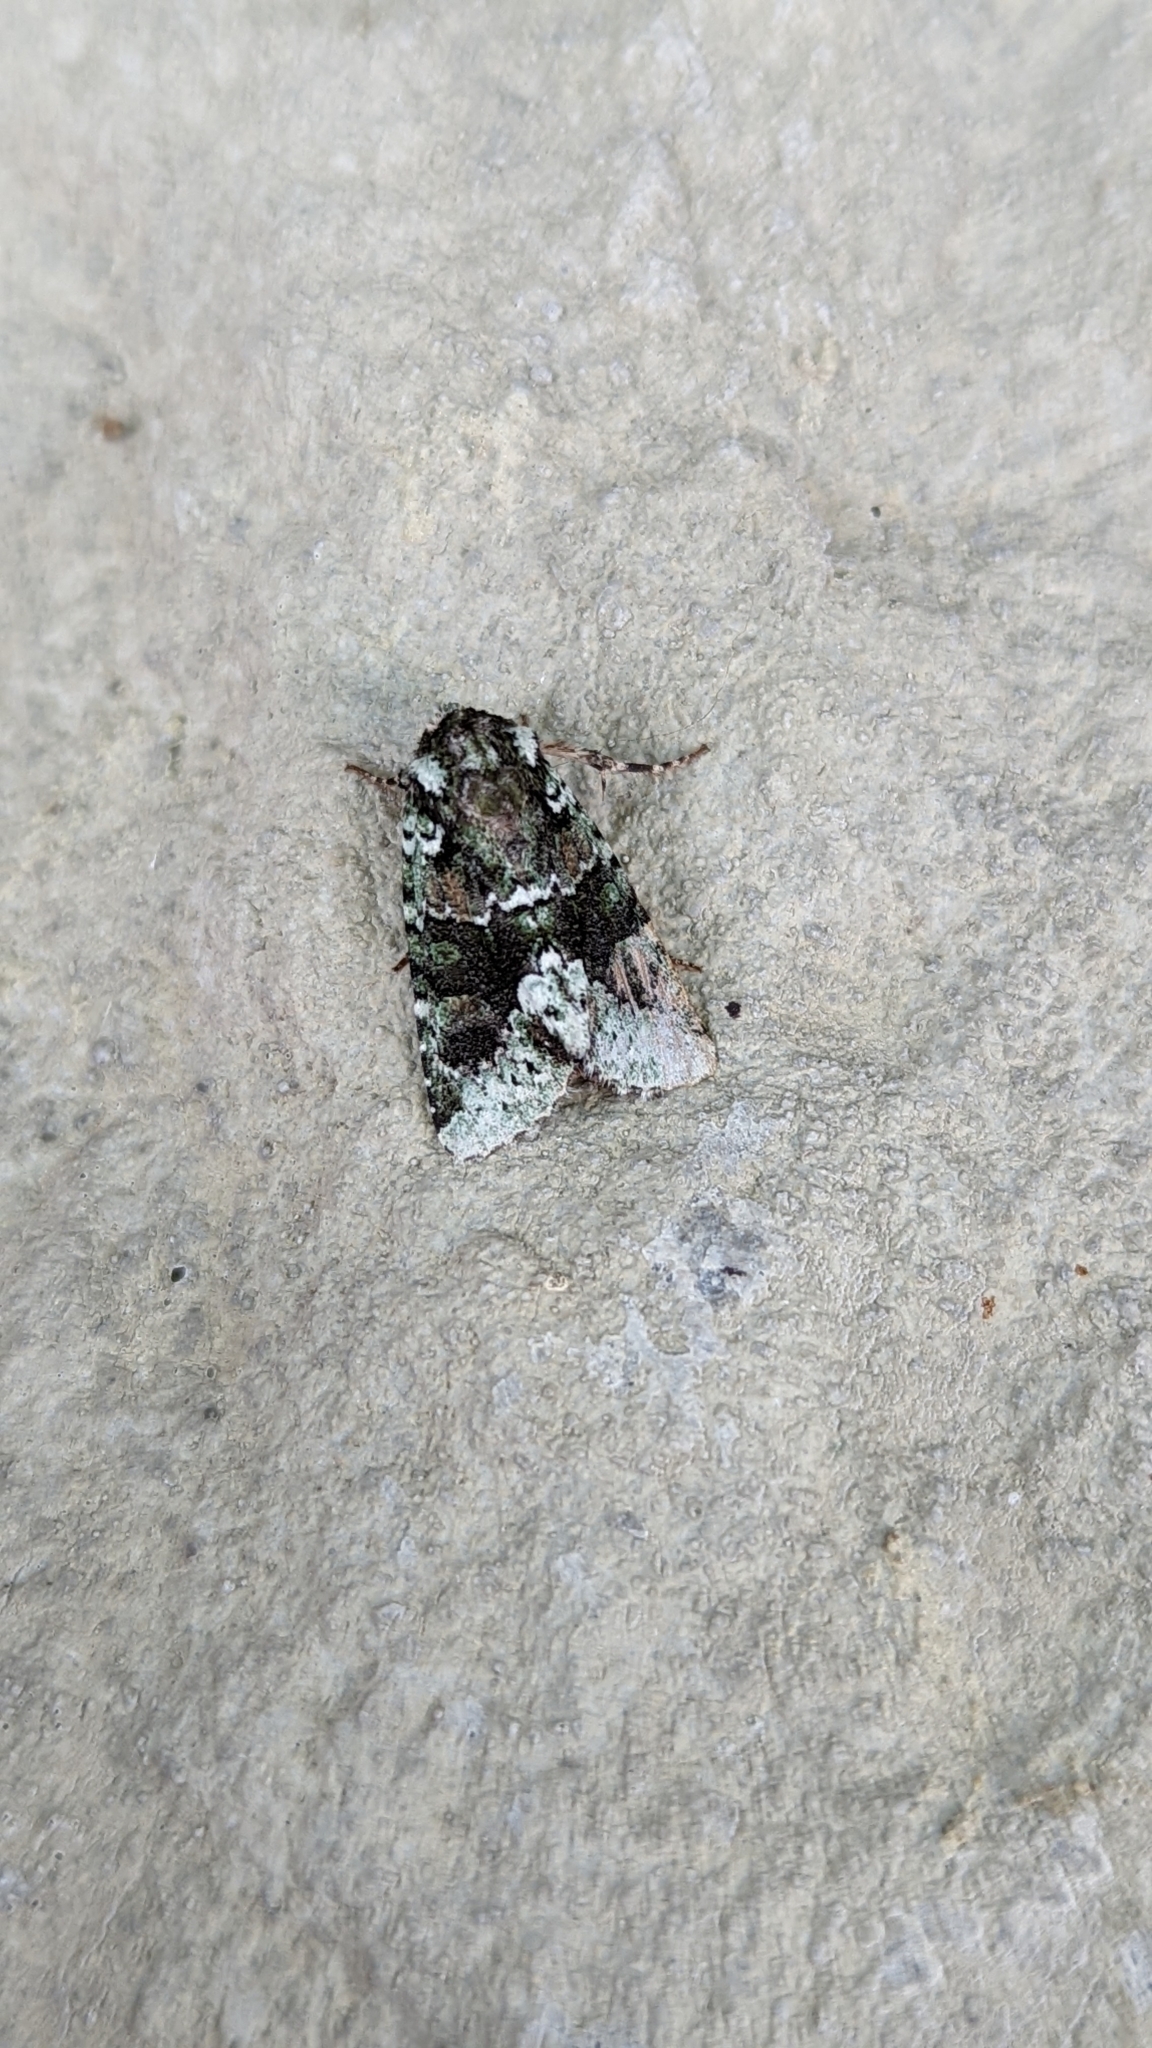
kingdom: Animalia
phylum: Arthropoda
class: Insecta
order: Lepidoptera
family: Noctuidae
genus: Lacinipolia
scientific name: Lacinipolia explicata
